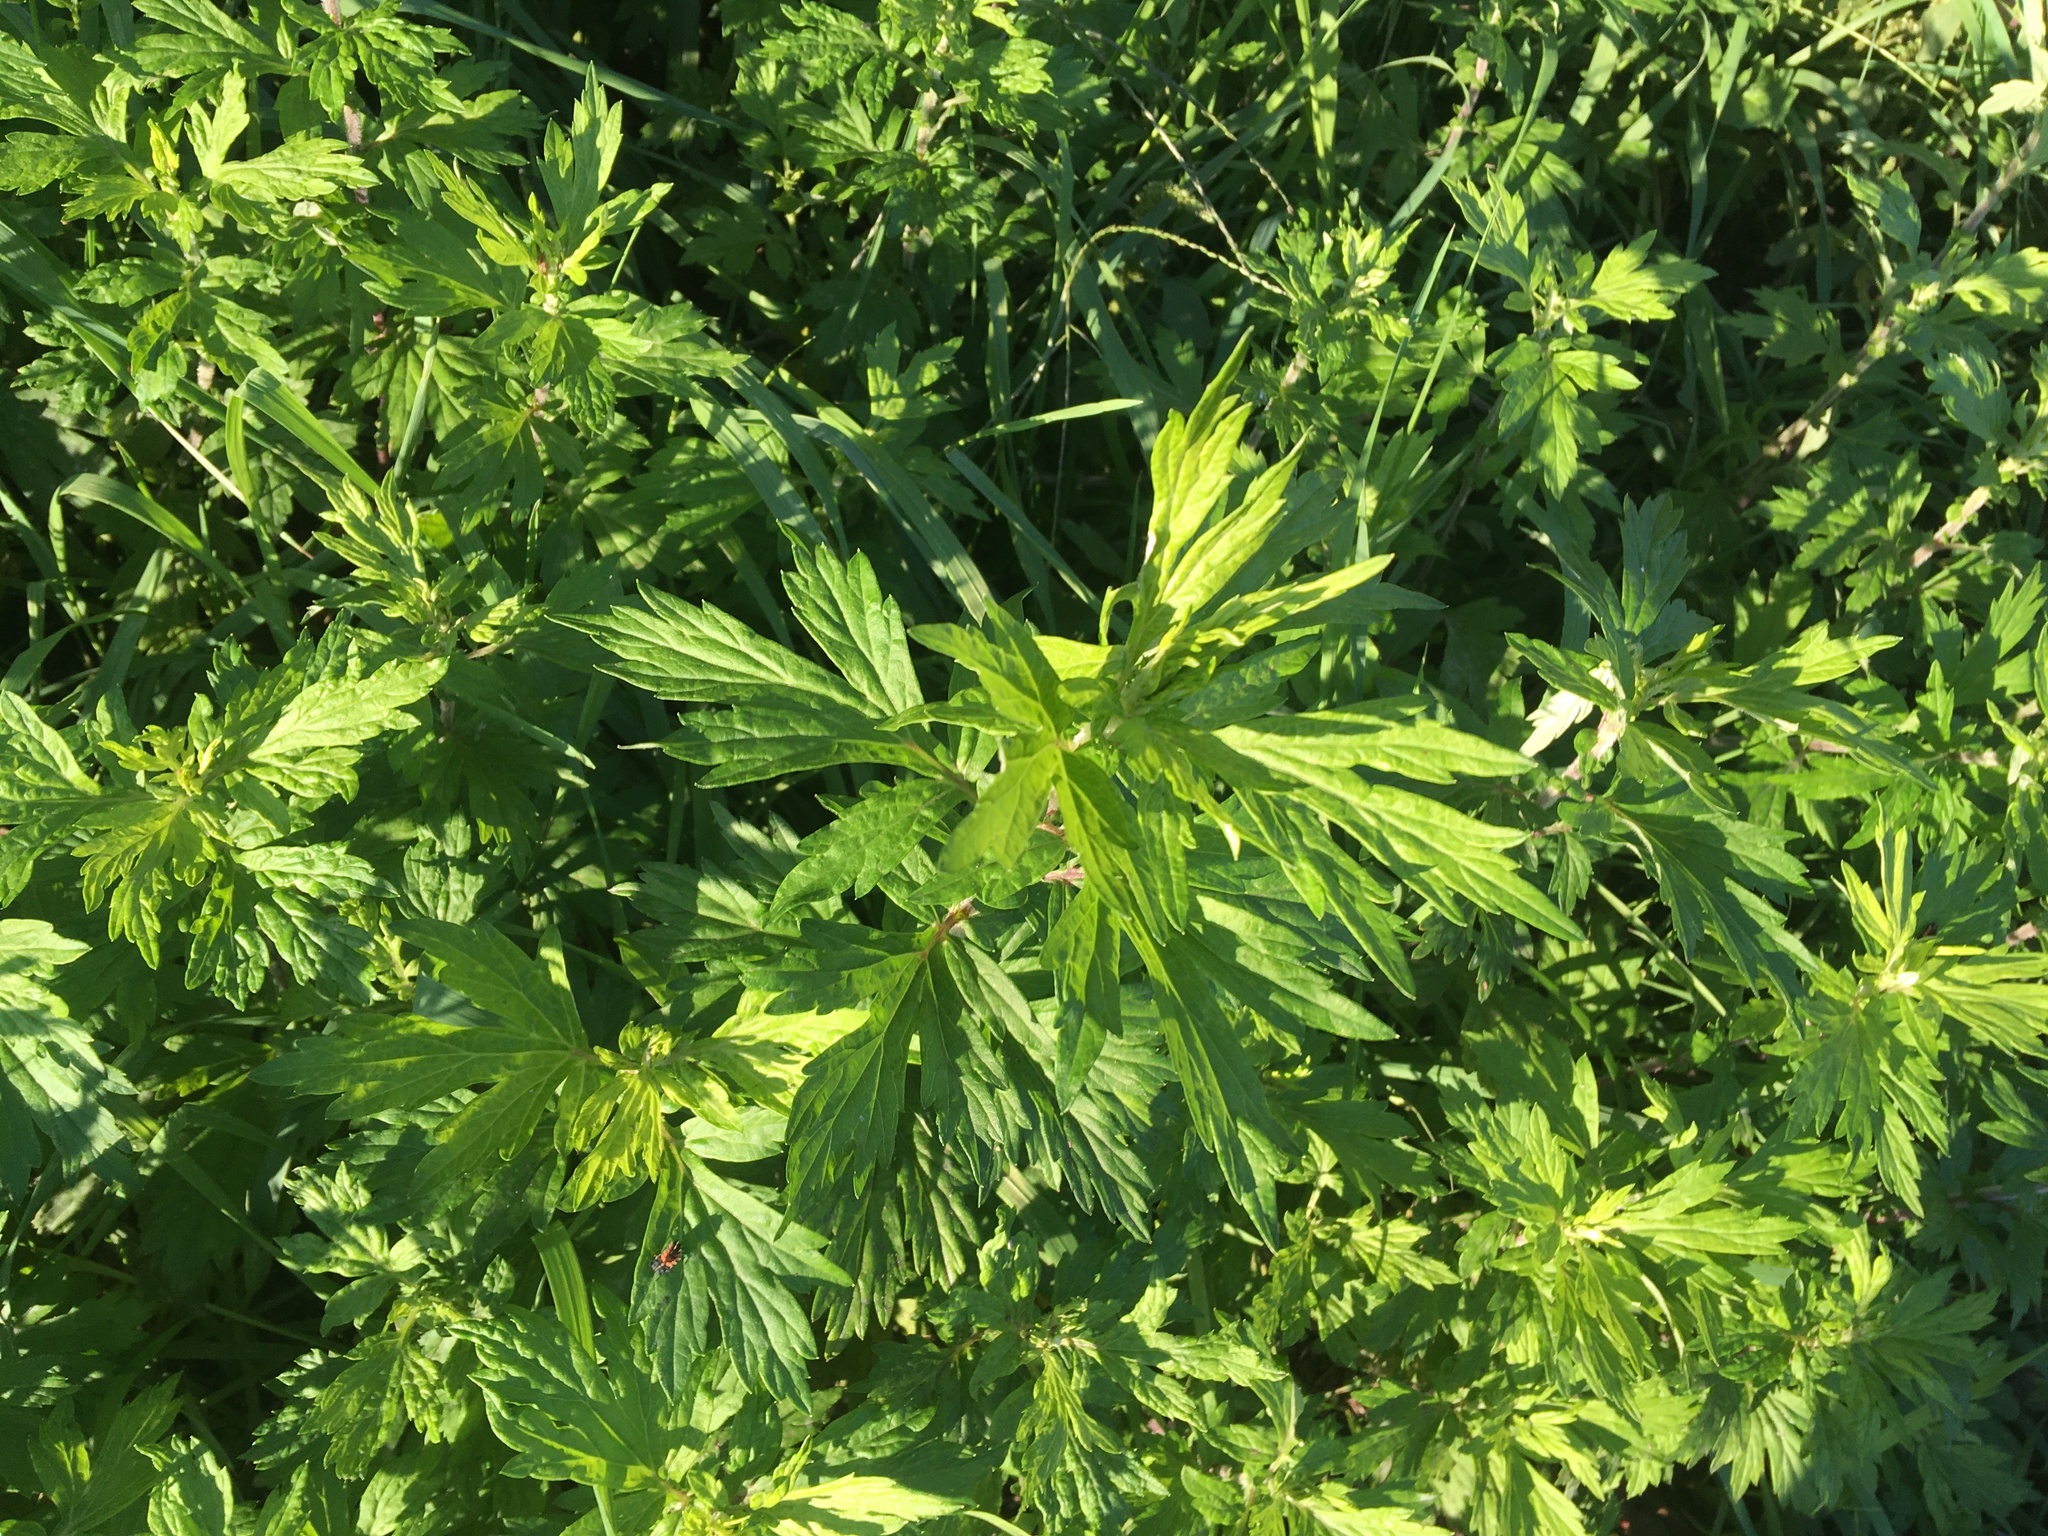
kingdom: Plantae
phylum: Tracheophyta
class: Magnoliopsida
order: Asterales
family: Asteraceae
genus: Artemisia
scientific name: Artemisia vulgaris
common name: Mugwort
